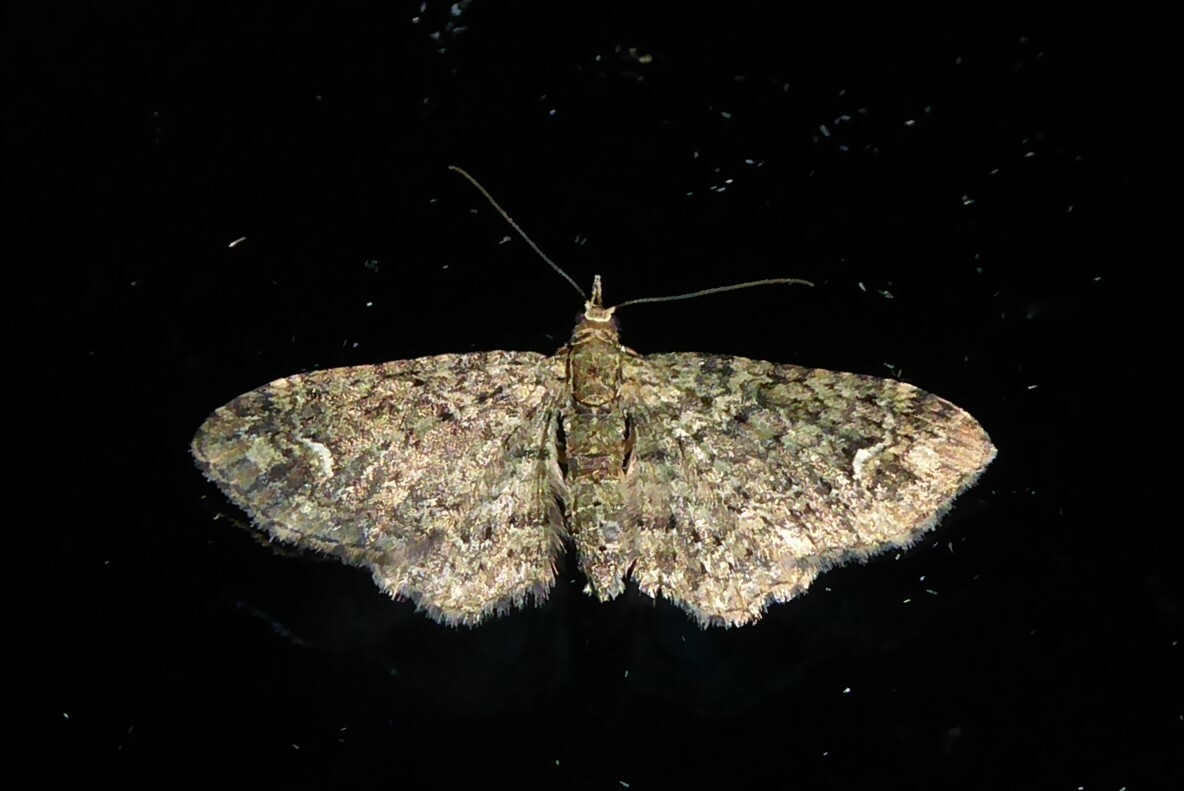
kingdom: Animalia
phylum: Arthropoda
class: Insecta
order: Lepidoptera
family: Geometridae
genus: Pasiphilodes
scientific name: Pasiphilodes testulata
